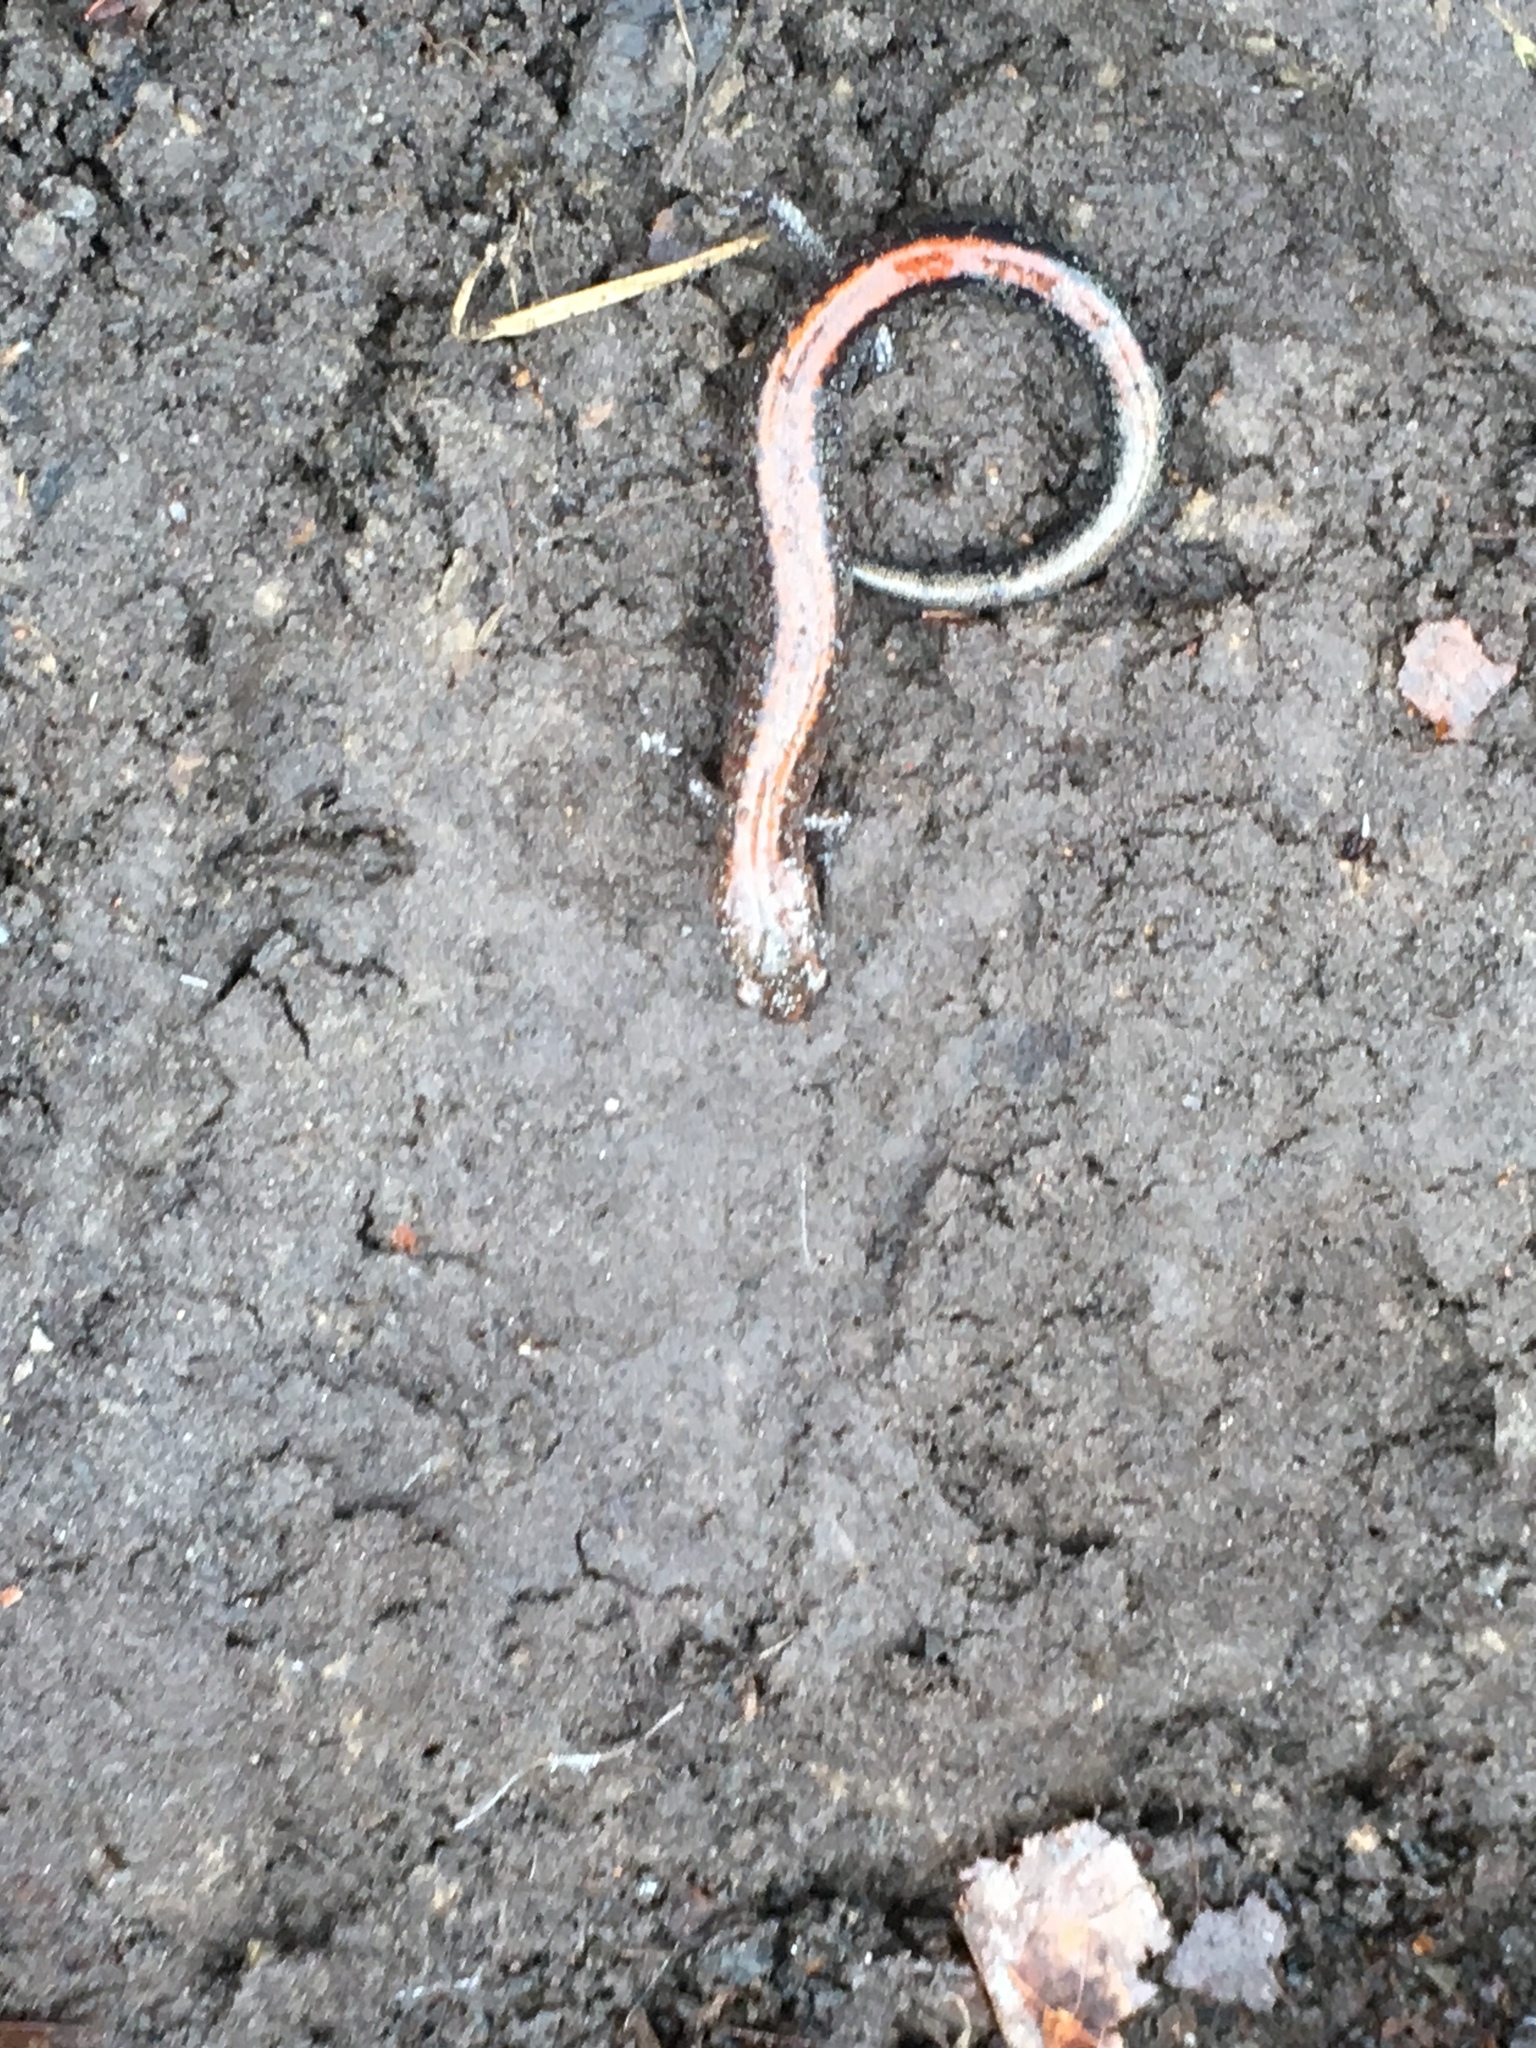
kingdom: Animalia
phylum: Chordata
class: Amphibia
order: Caudata
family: Plethodontidae
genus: Plethodon
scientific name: Plethodon cinereus
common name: Redback salamander
